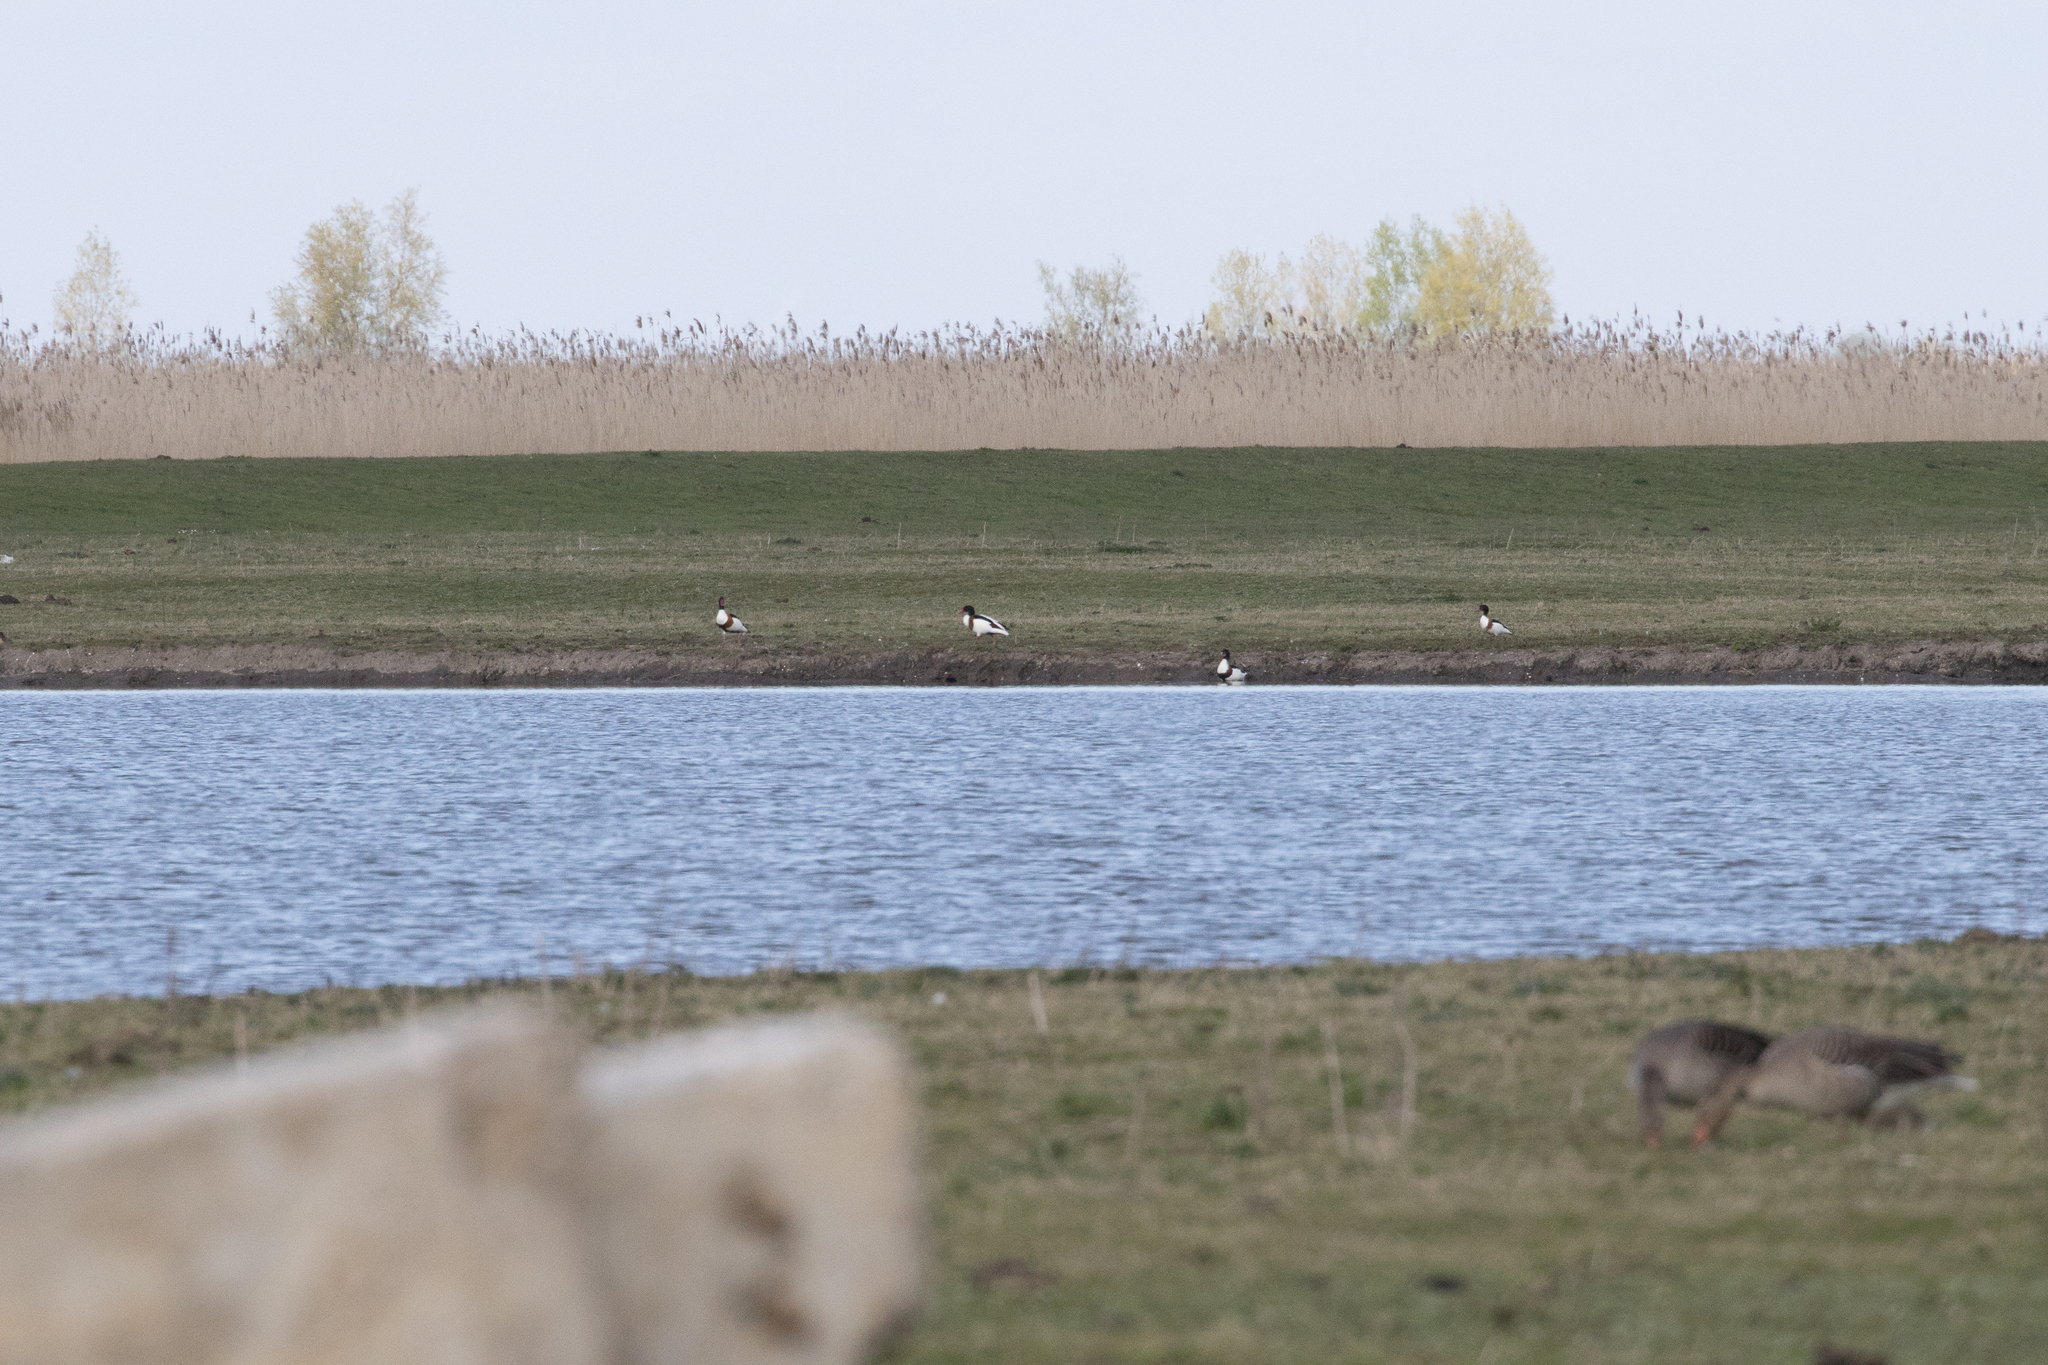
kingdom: Animalia
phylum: Chordata
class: Aves
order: Anseriformes
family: Anatidae
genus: Tadorna
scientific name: Tadorna tadorna
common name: Common shelduck
